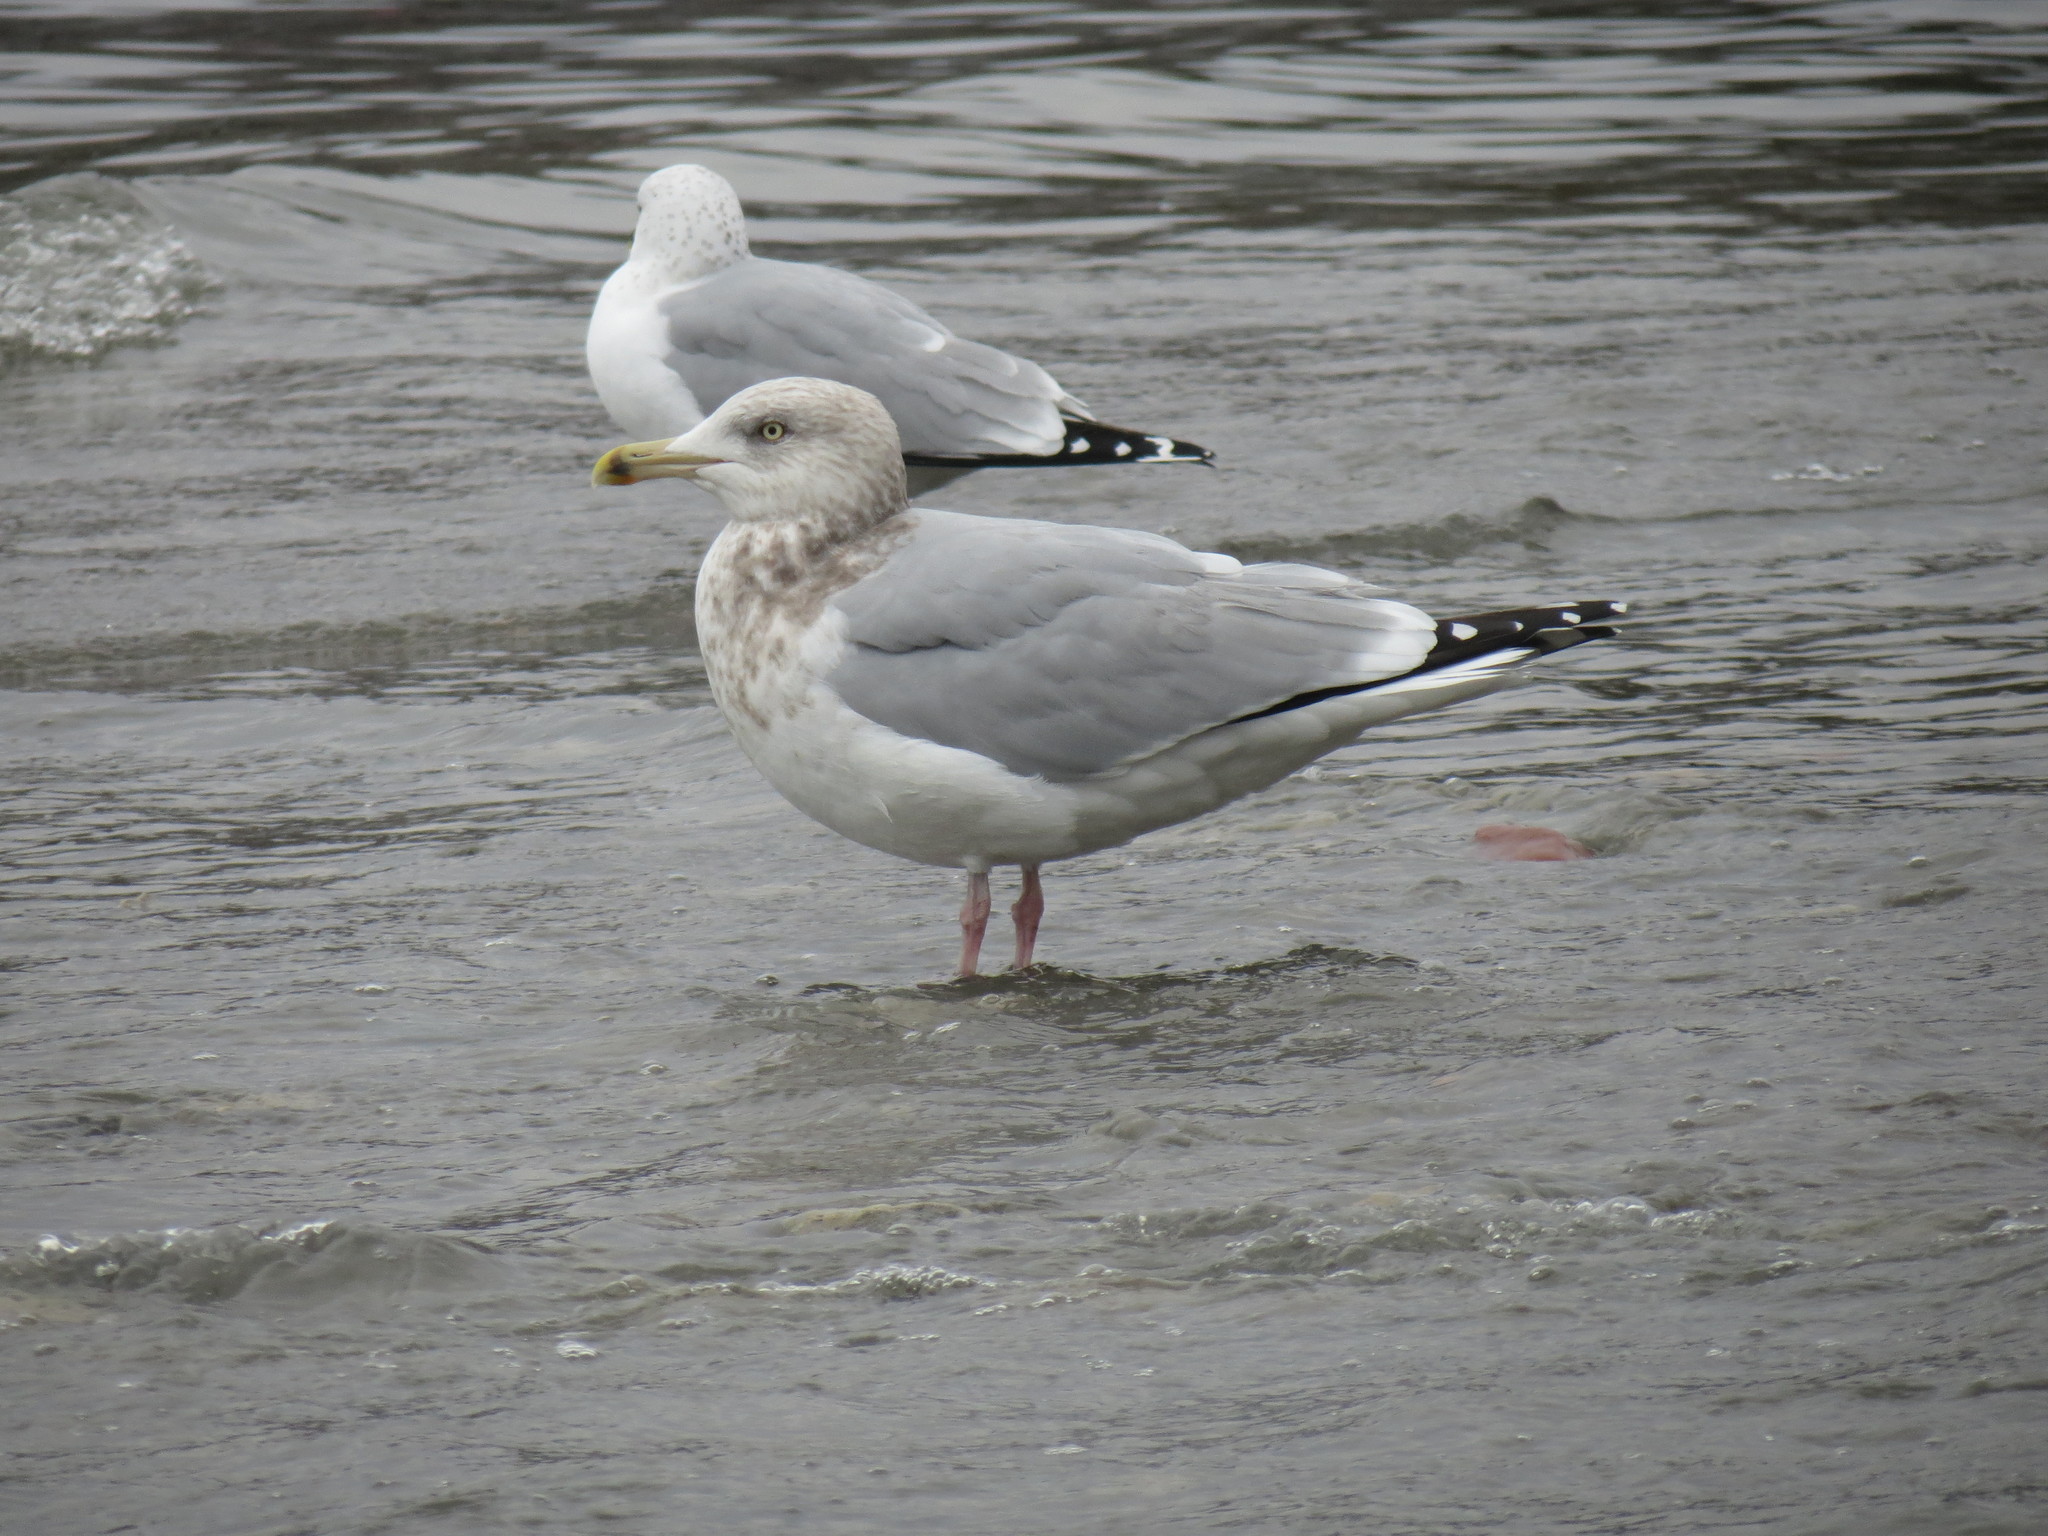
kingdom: Animalia
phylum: Chordata
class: Aves
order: Charadriiformes
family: Laridae
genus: Larus
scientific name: Larus argentatus
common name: Herring gull
